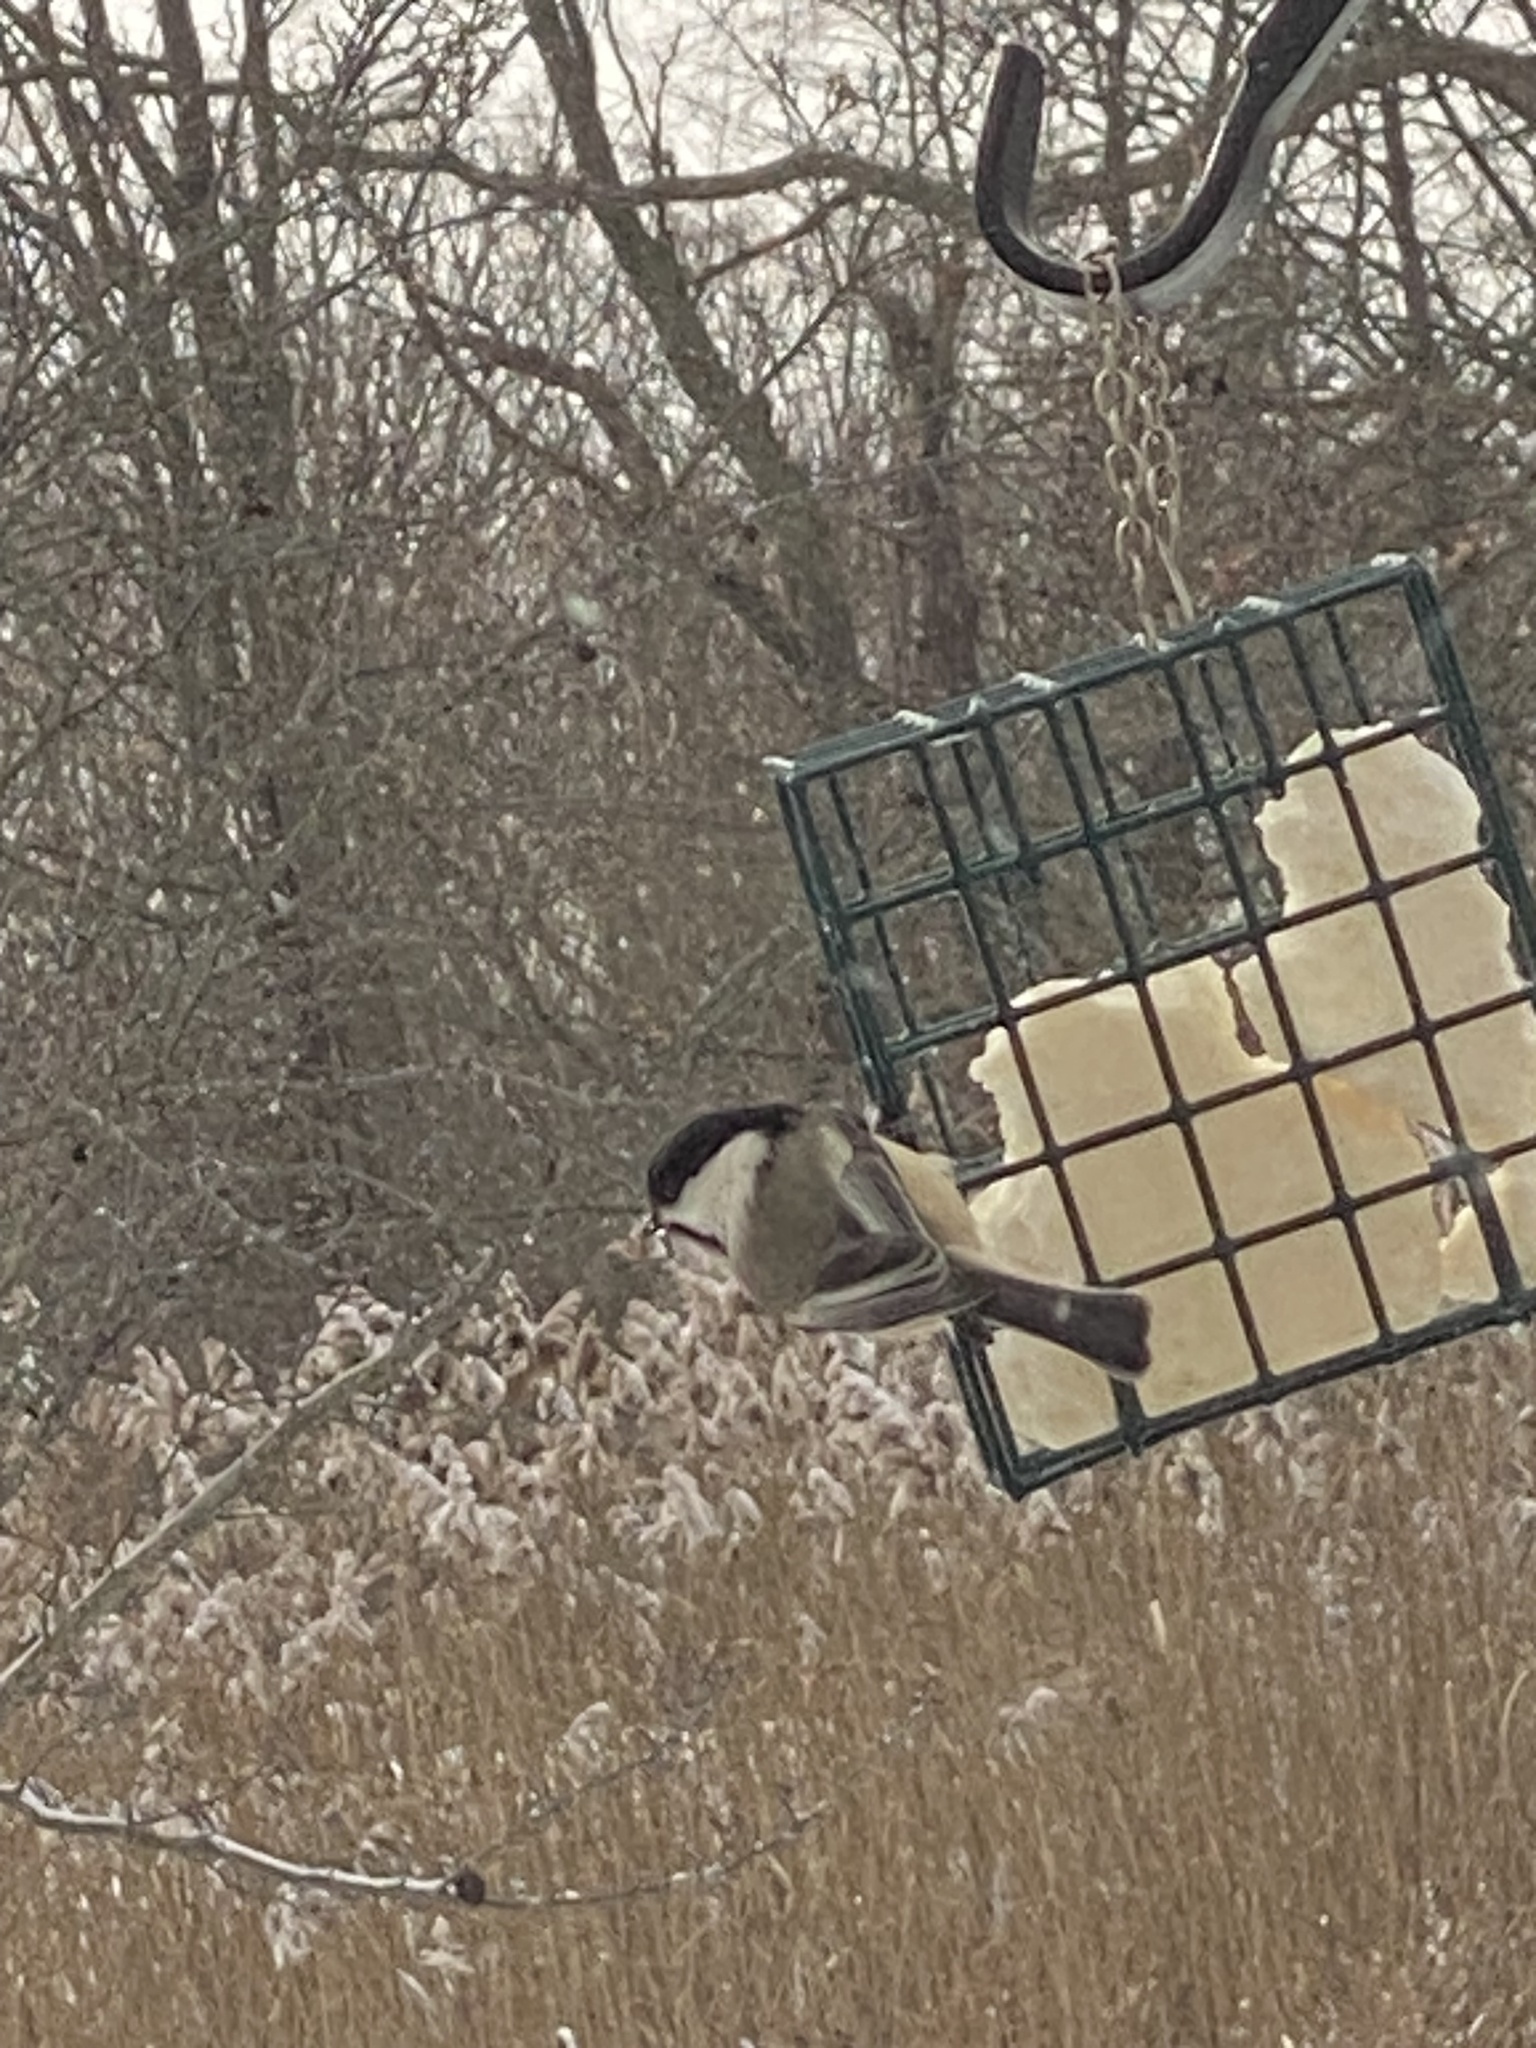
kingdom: Animalia
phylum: Chordata
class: Aves
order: Passeriformes
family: Paridae
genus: Poecile
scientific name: Poecile atricapillus
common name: Black-capped chickadee
